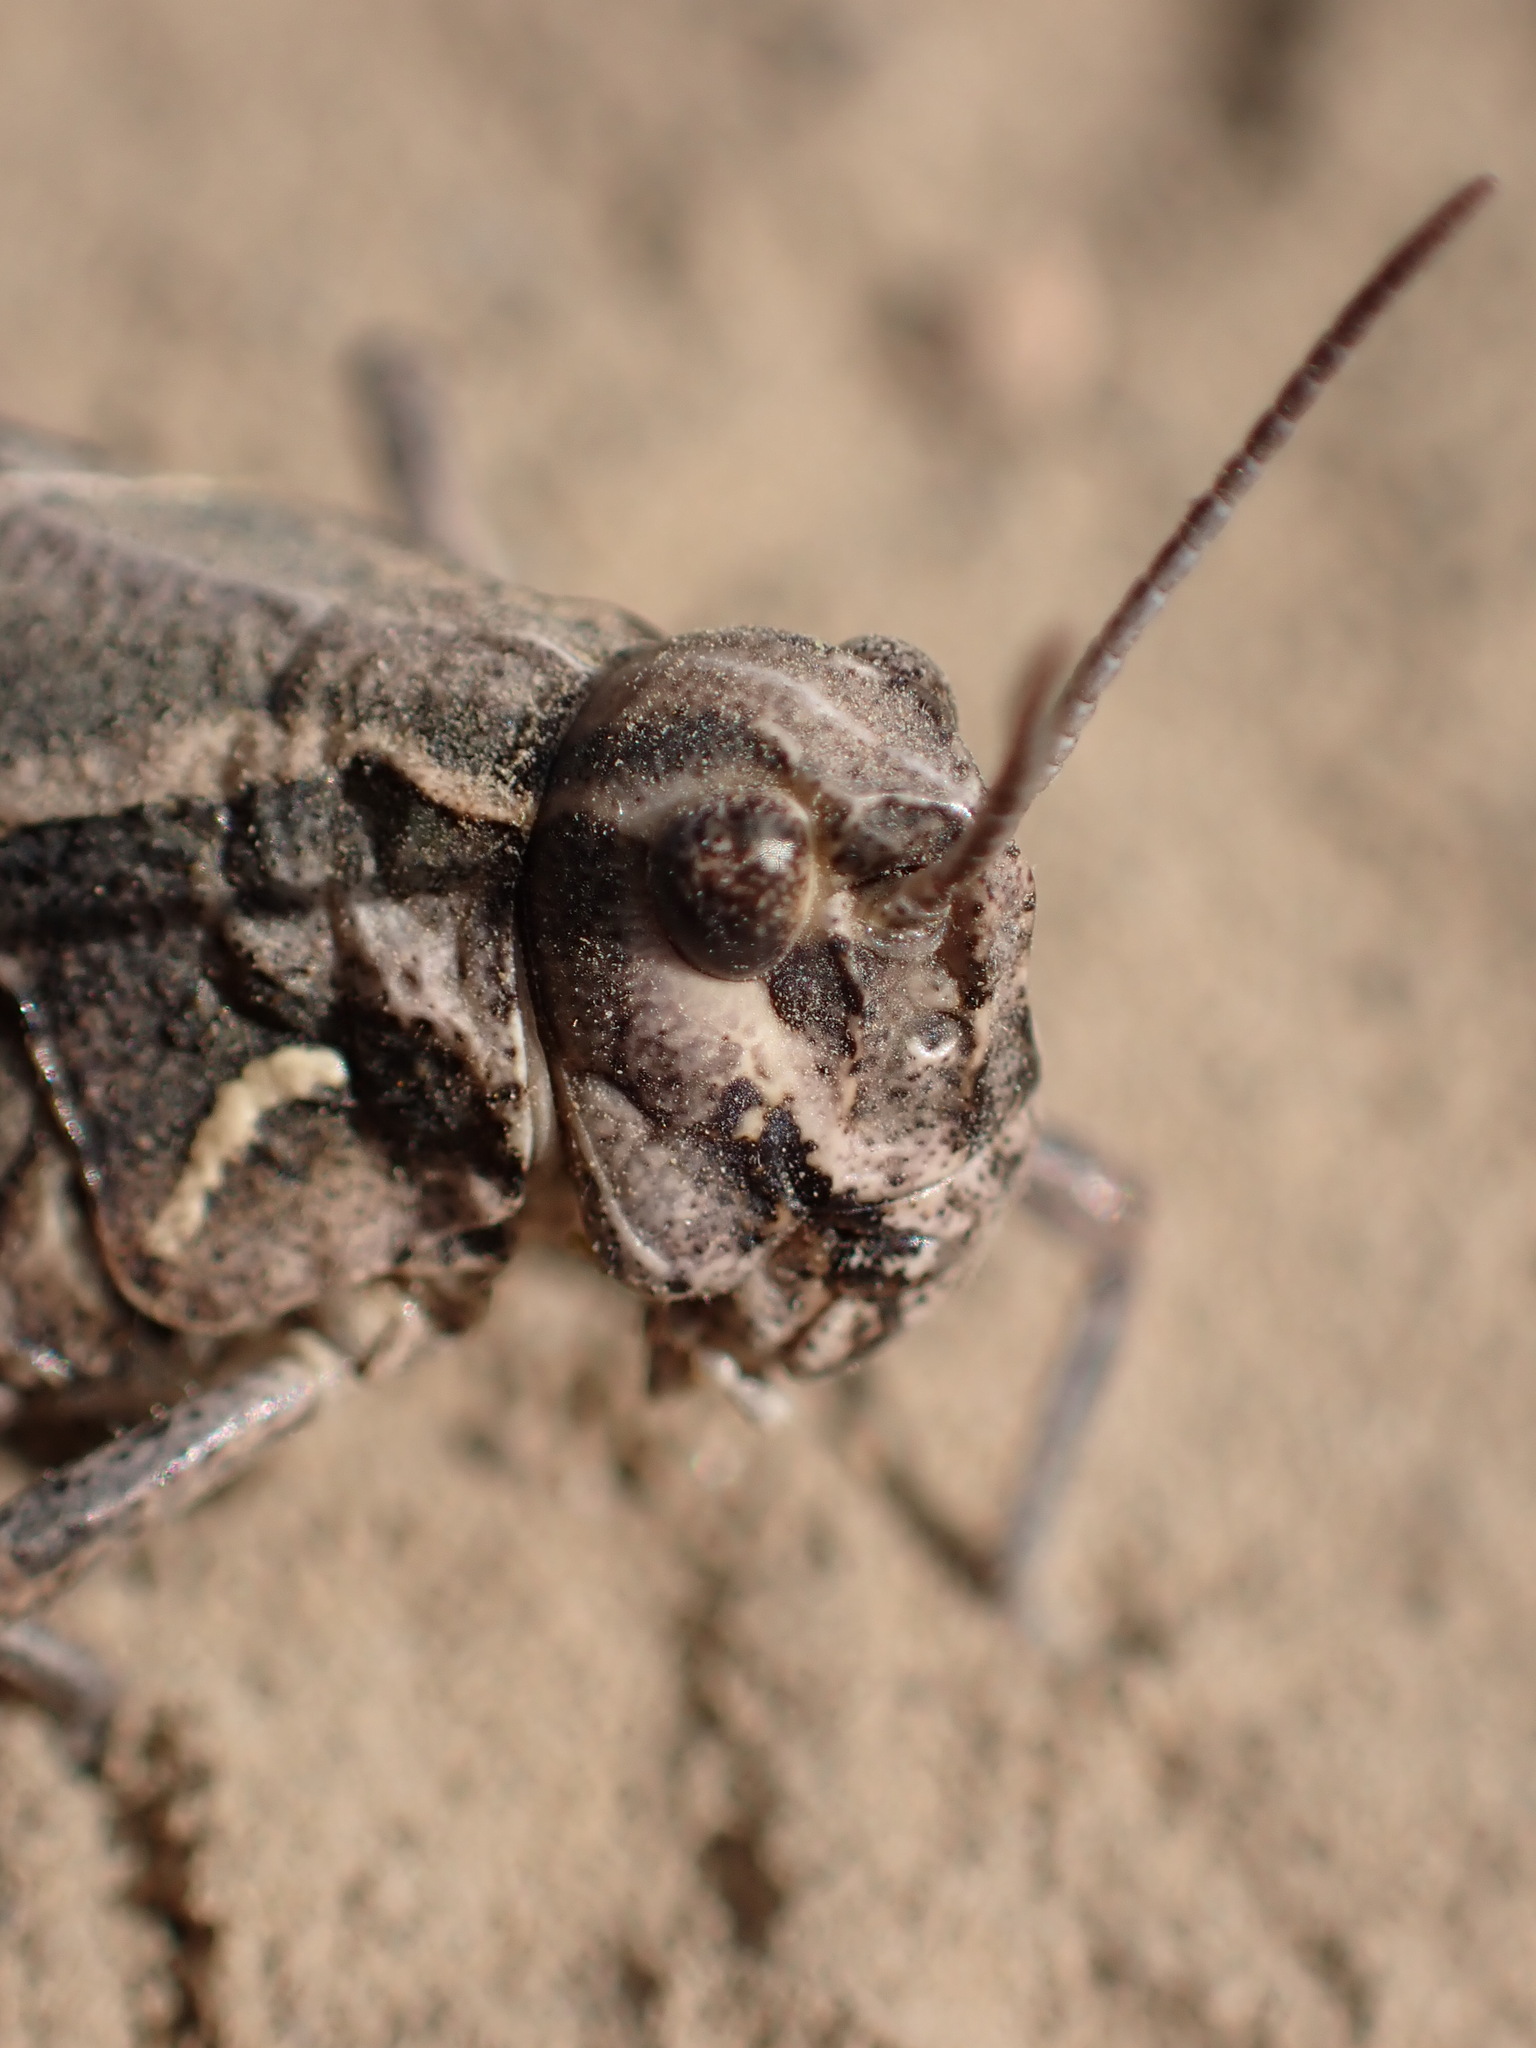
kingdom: Animalia
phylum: Arthropoda
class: Insecta
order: Orthoptera
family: Acrididae
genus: Esselenia
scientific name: Esselenia vanduzeei
